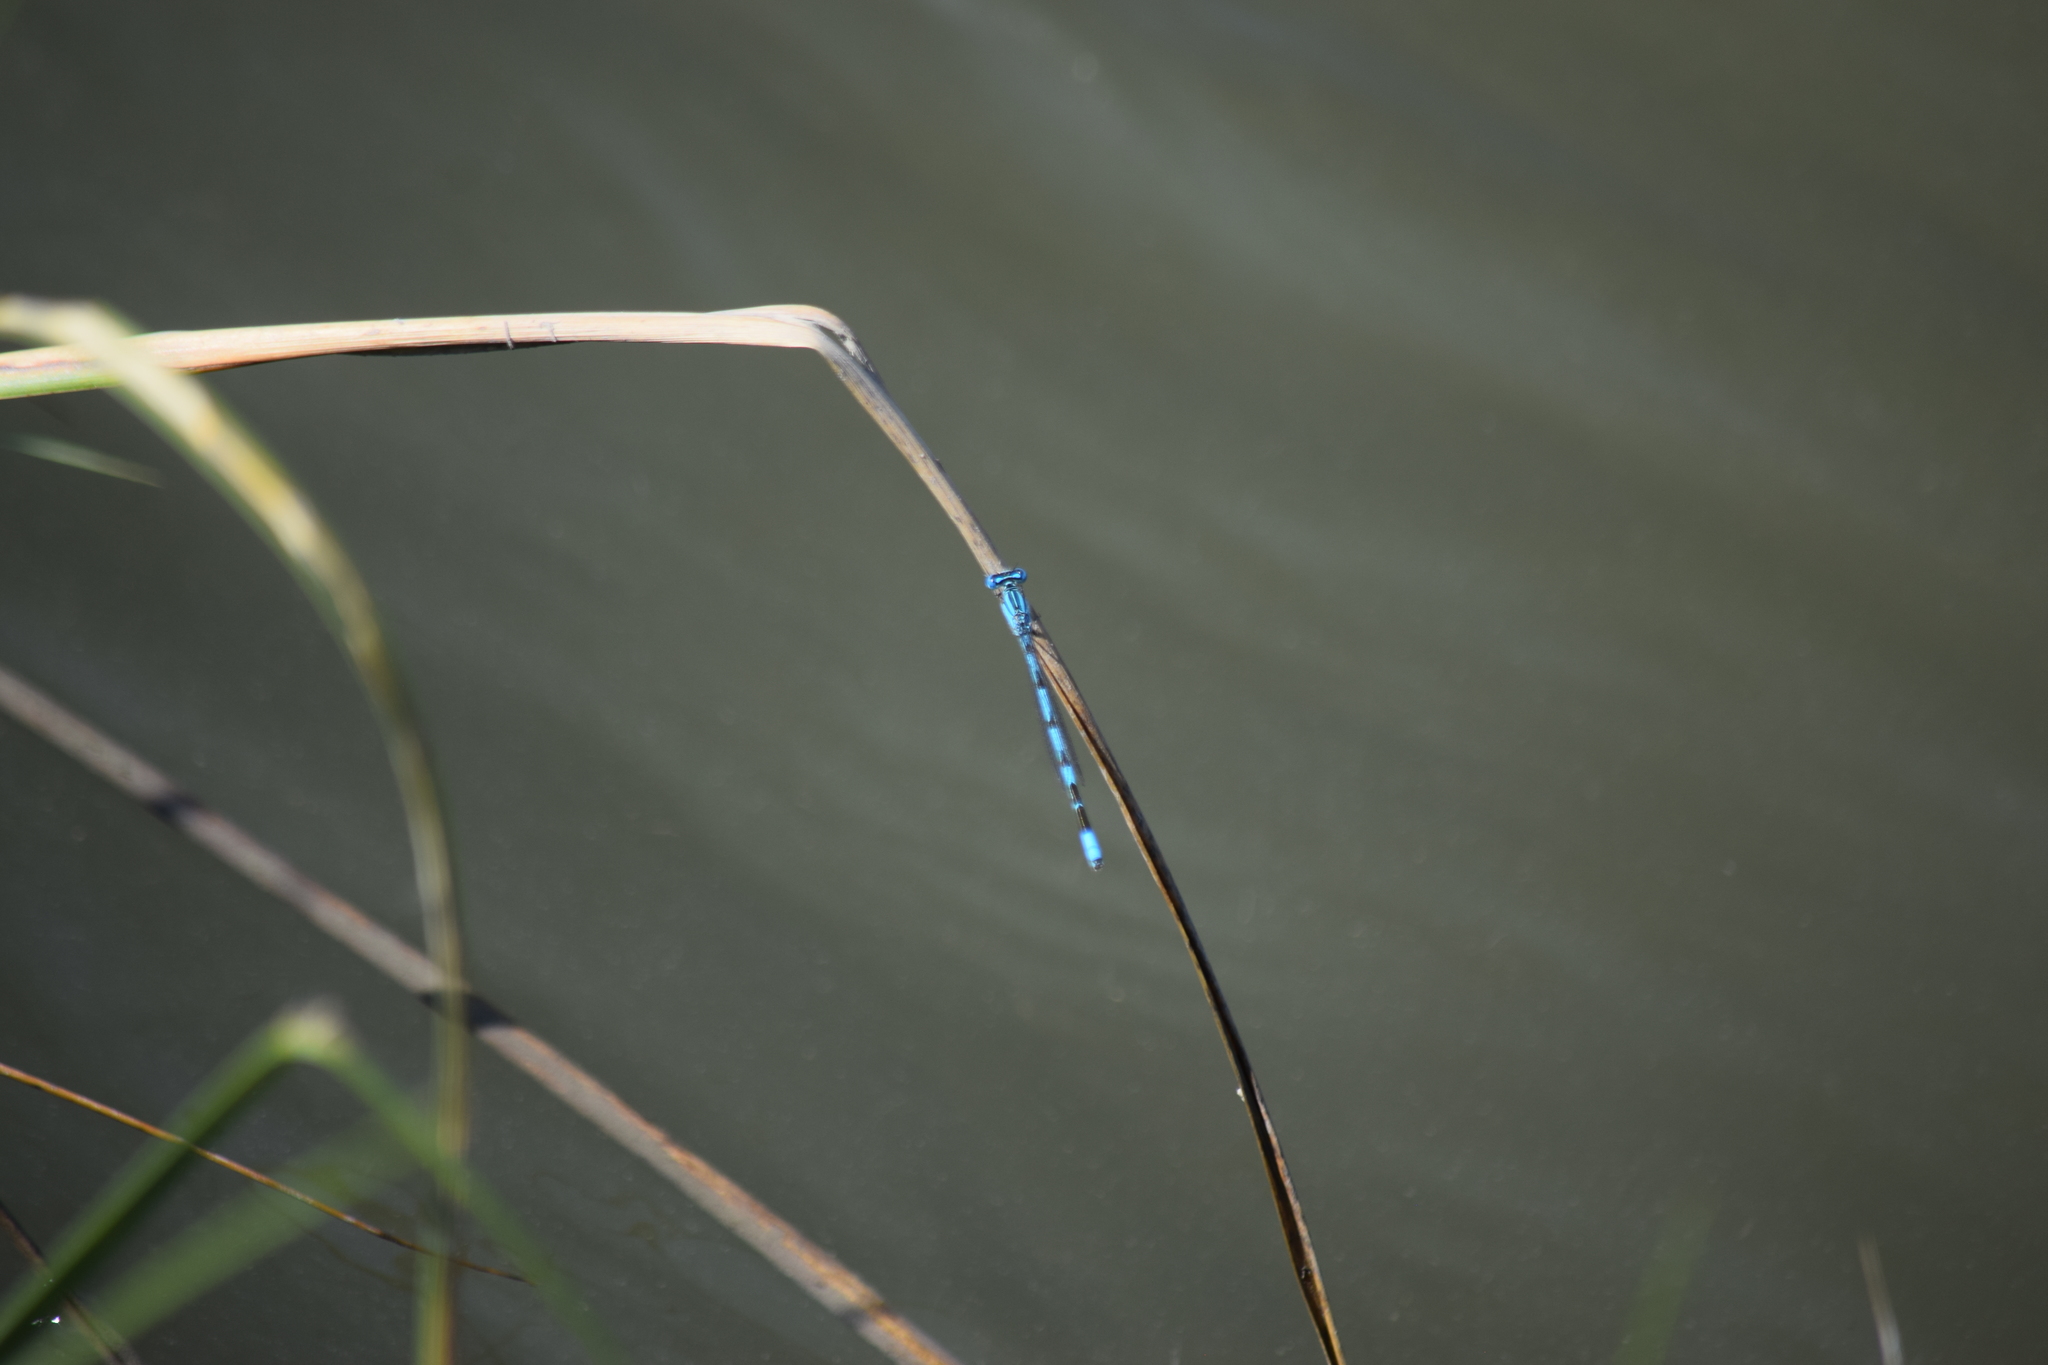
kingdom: Animalia
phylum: Arthropoda
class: Insecta
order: Odonata
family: Coenagrionidae
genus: Enallagma
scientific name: Enallagma durum
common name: Big bluet
